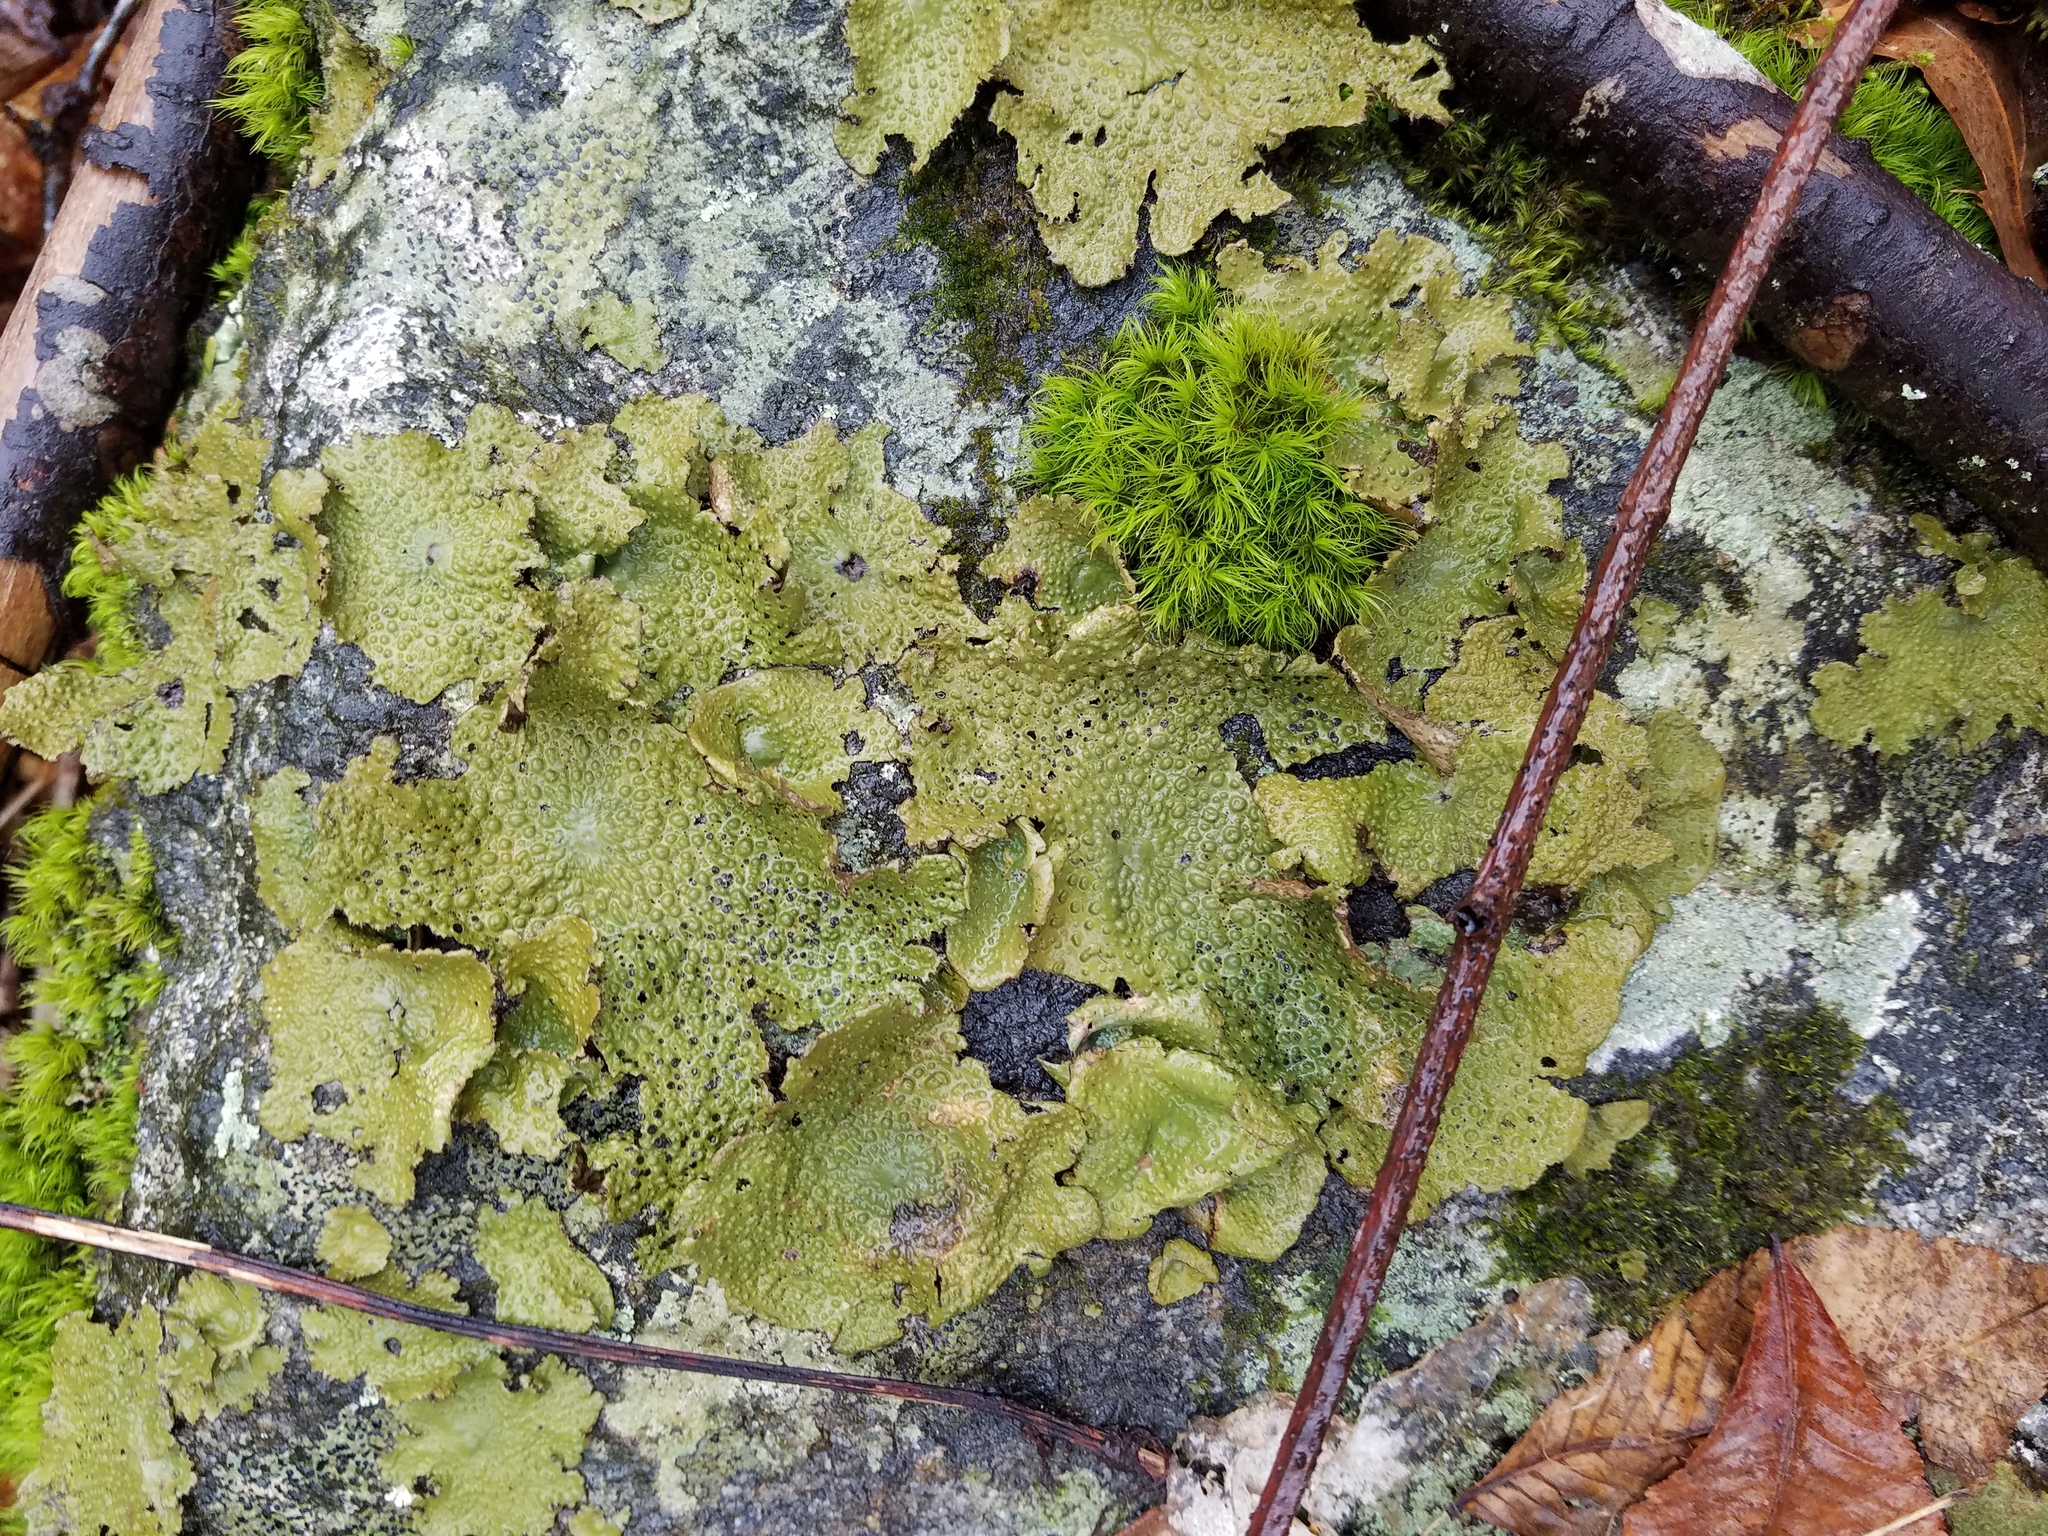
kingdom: Fungi
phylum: Ascomycota
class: Lecanoromycetes
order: Umbilicariales
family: Umbilicariaceae
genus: Lasallia
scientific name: Lasallia papulosa
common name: Common toadskin lichen
